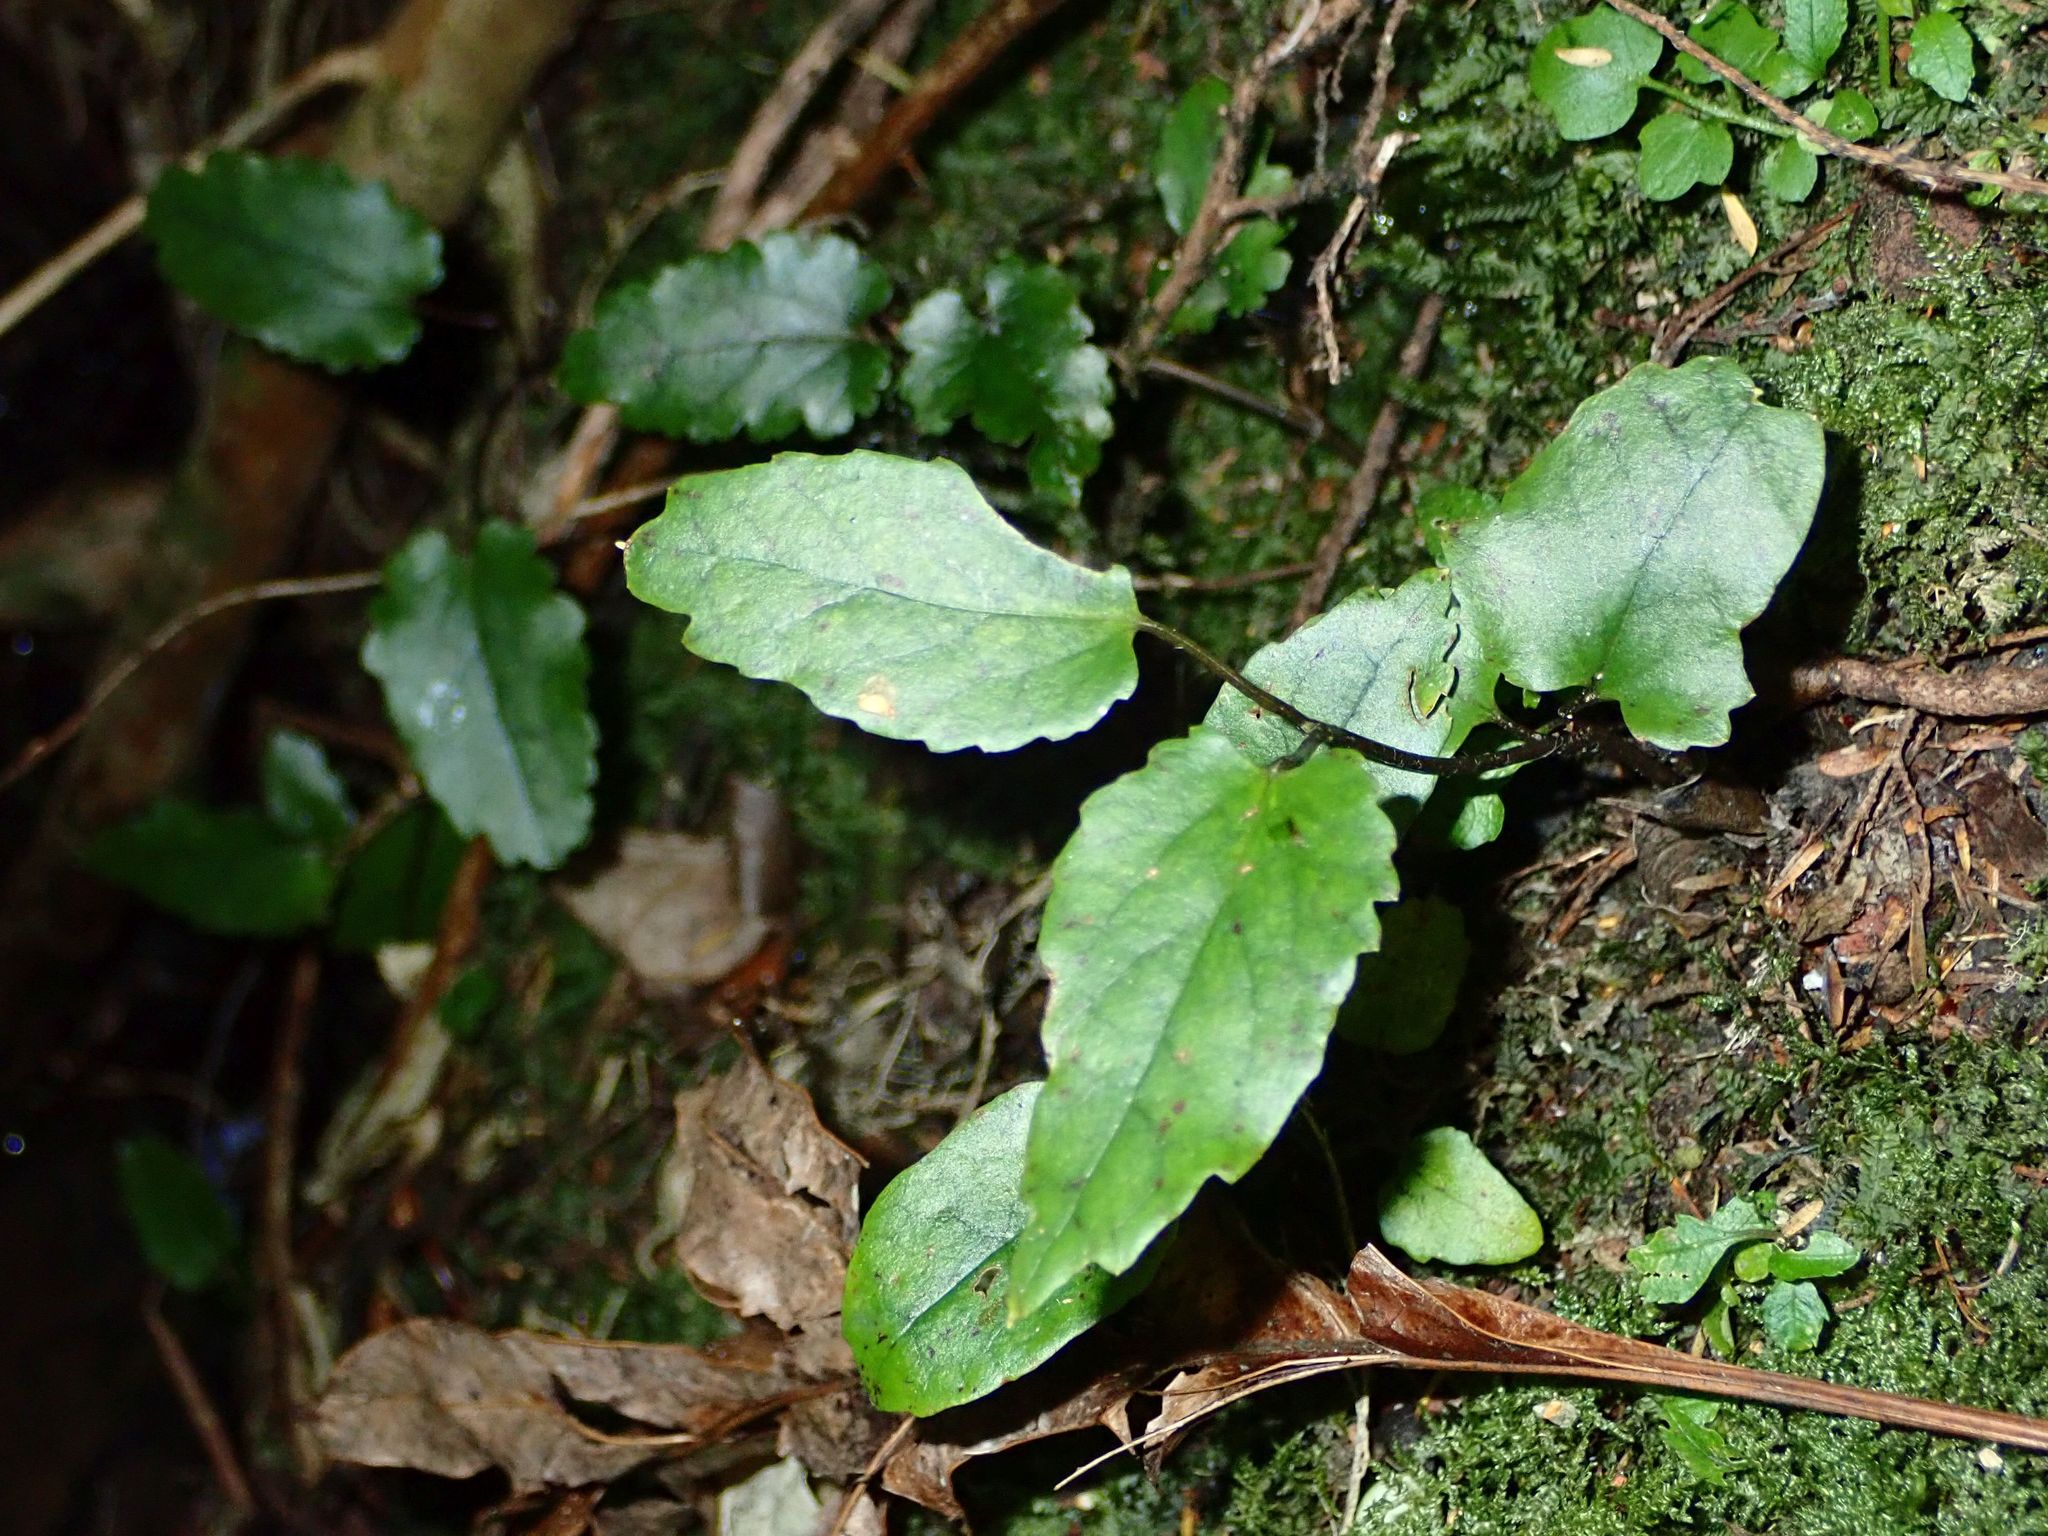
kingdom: Plantae
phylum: Tracheophyta
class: Magnoliopsida
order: Ranunculales
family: Ranunculaceae
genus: Clematis
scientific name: Clematis paniculata
